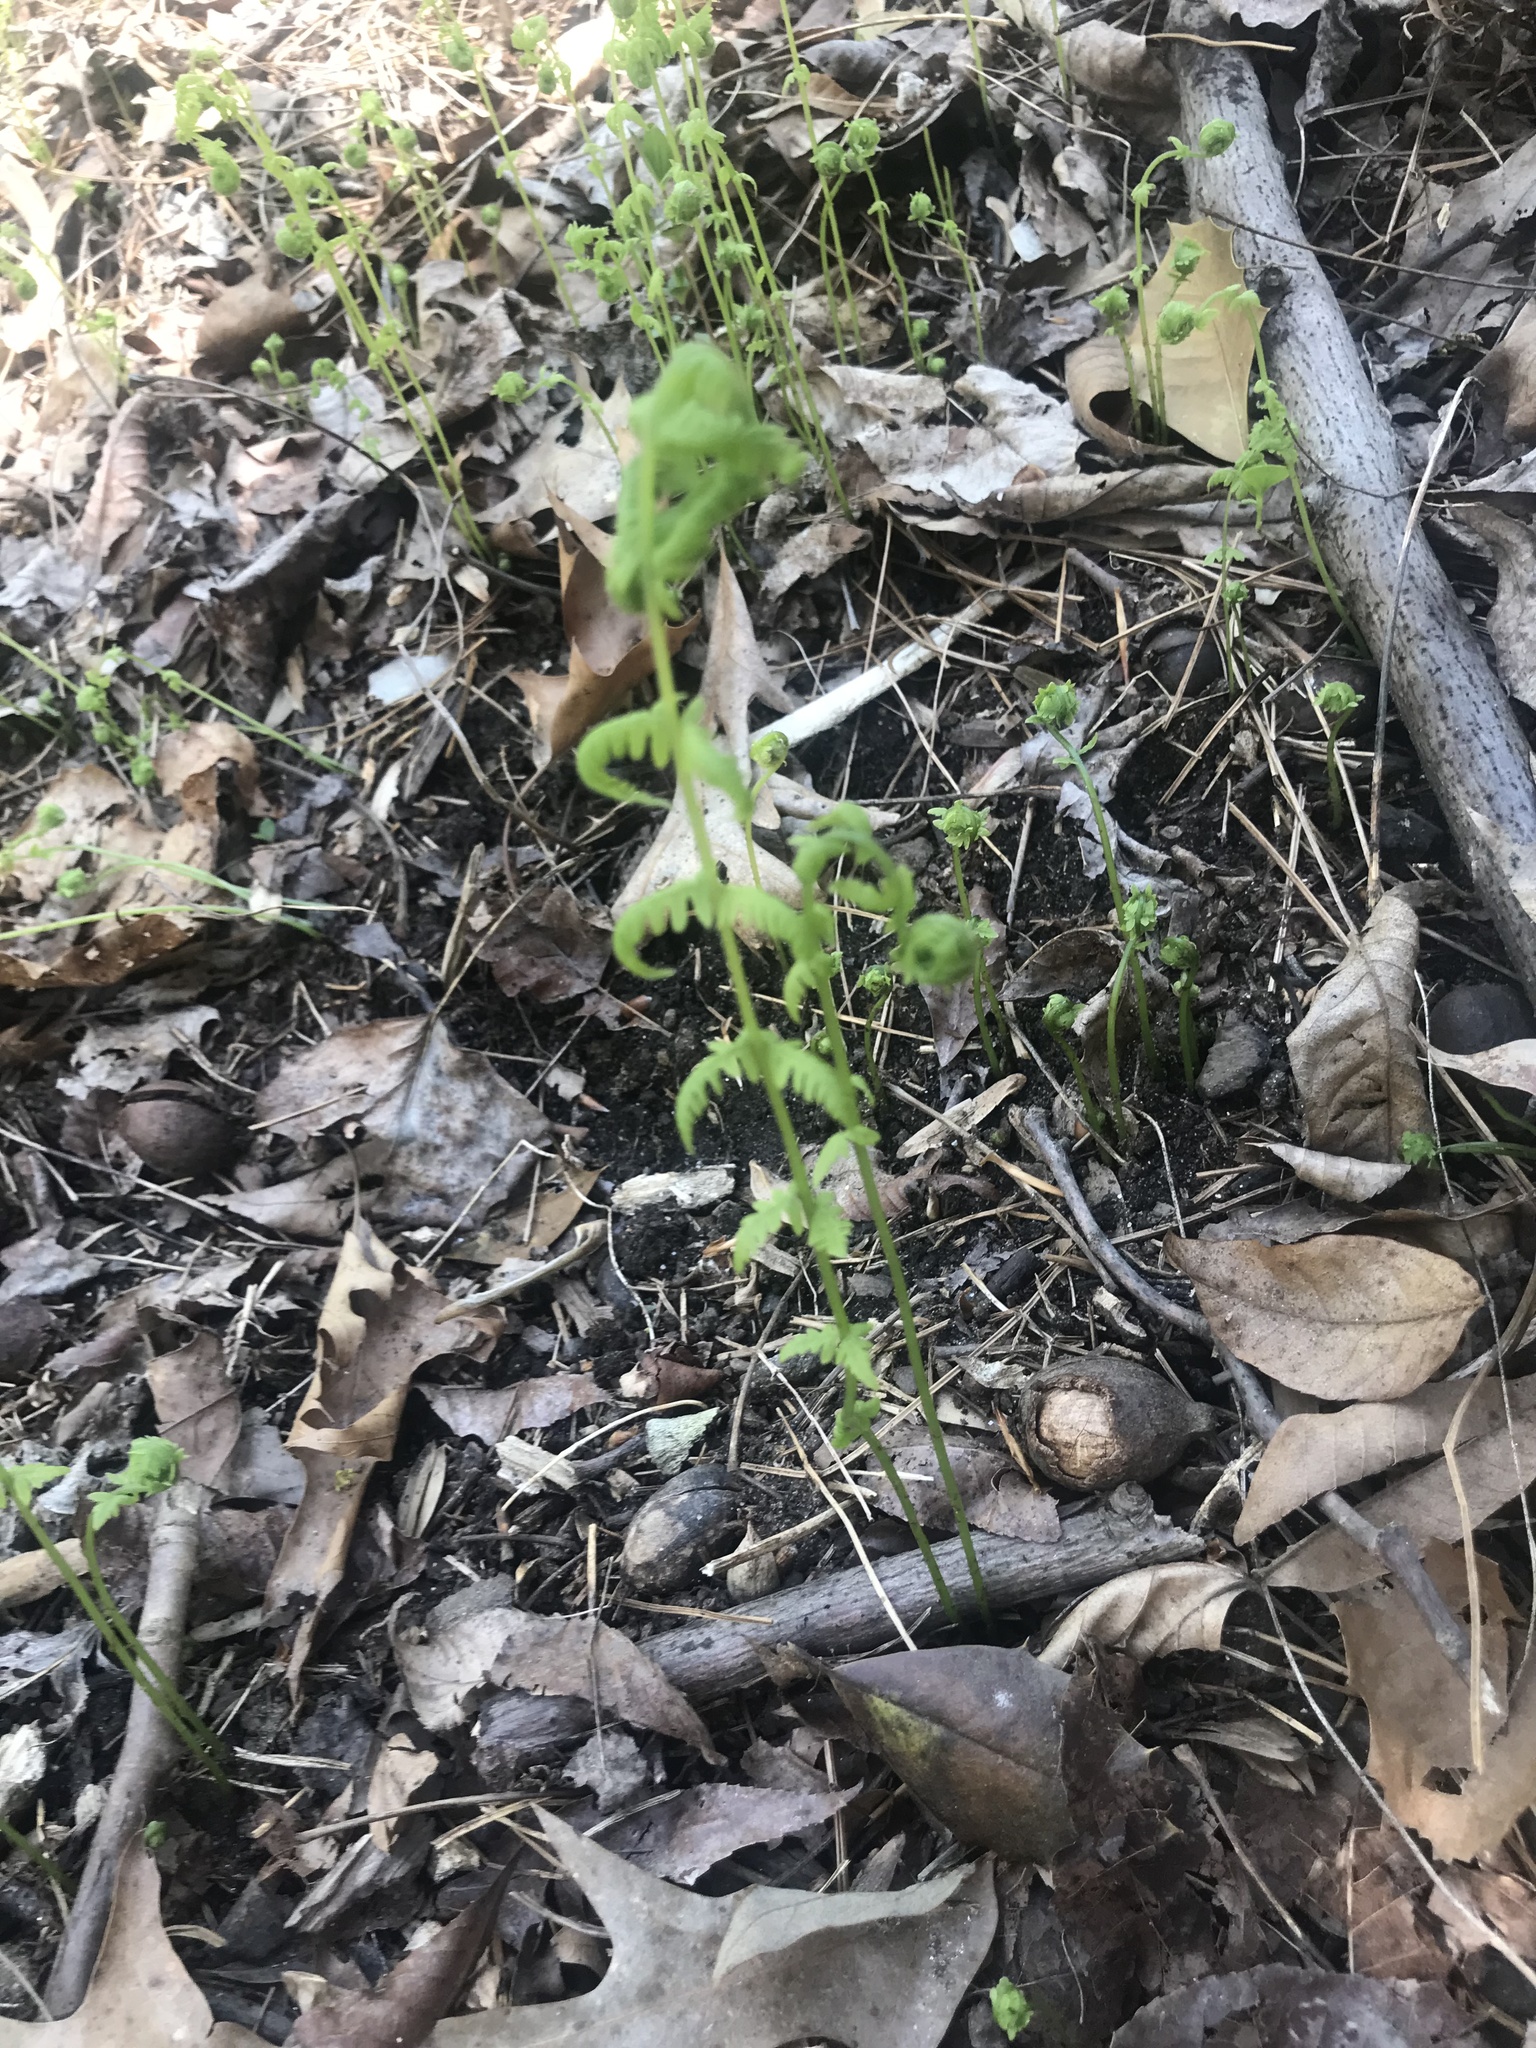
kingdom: Plantae
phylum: Tracheophyta
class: Polypodiopsida
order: Polypodiales
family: Thelypteridaceae
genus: Amauropelta
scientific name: Amauropelta noveboracensis
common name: New york fern
